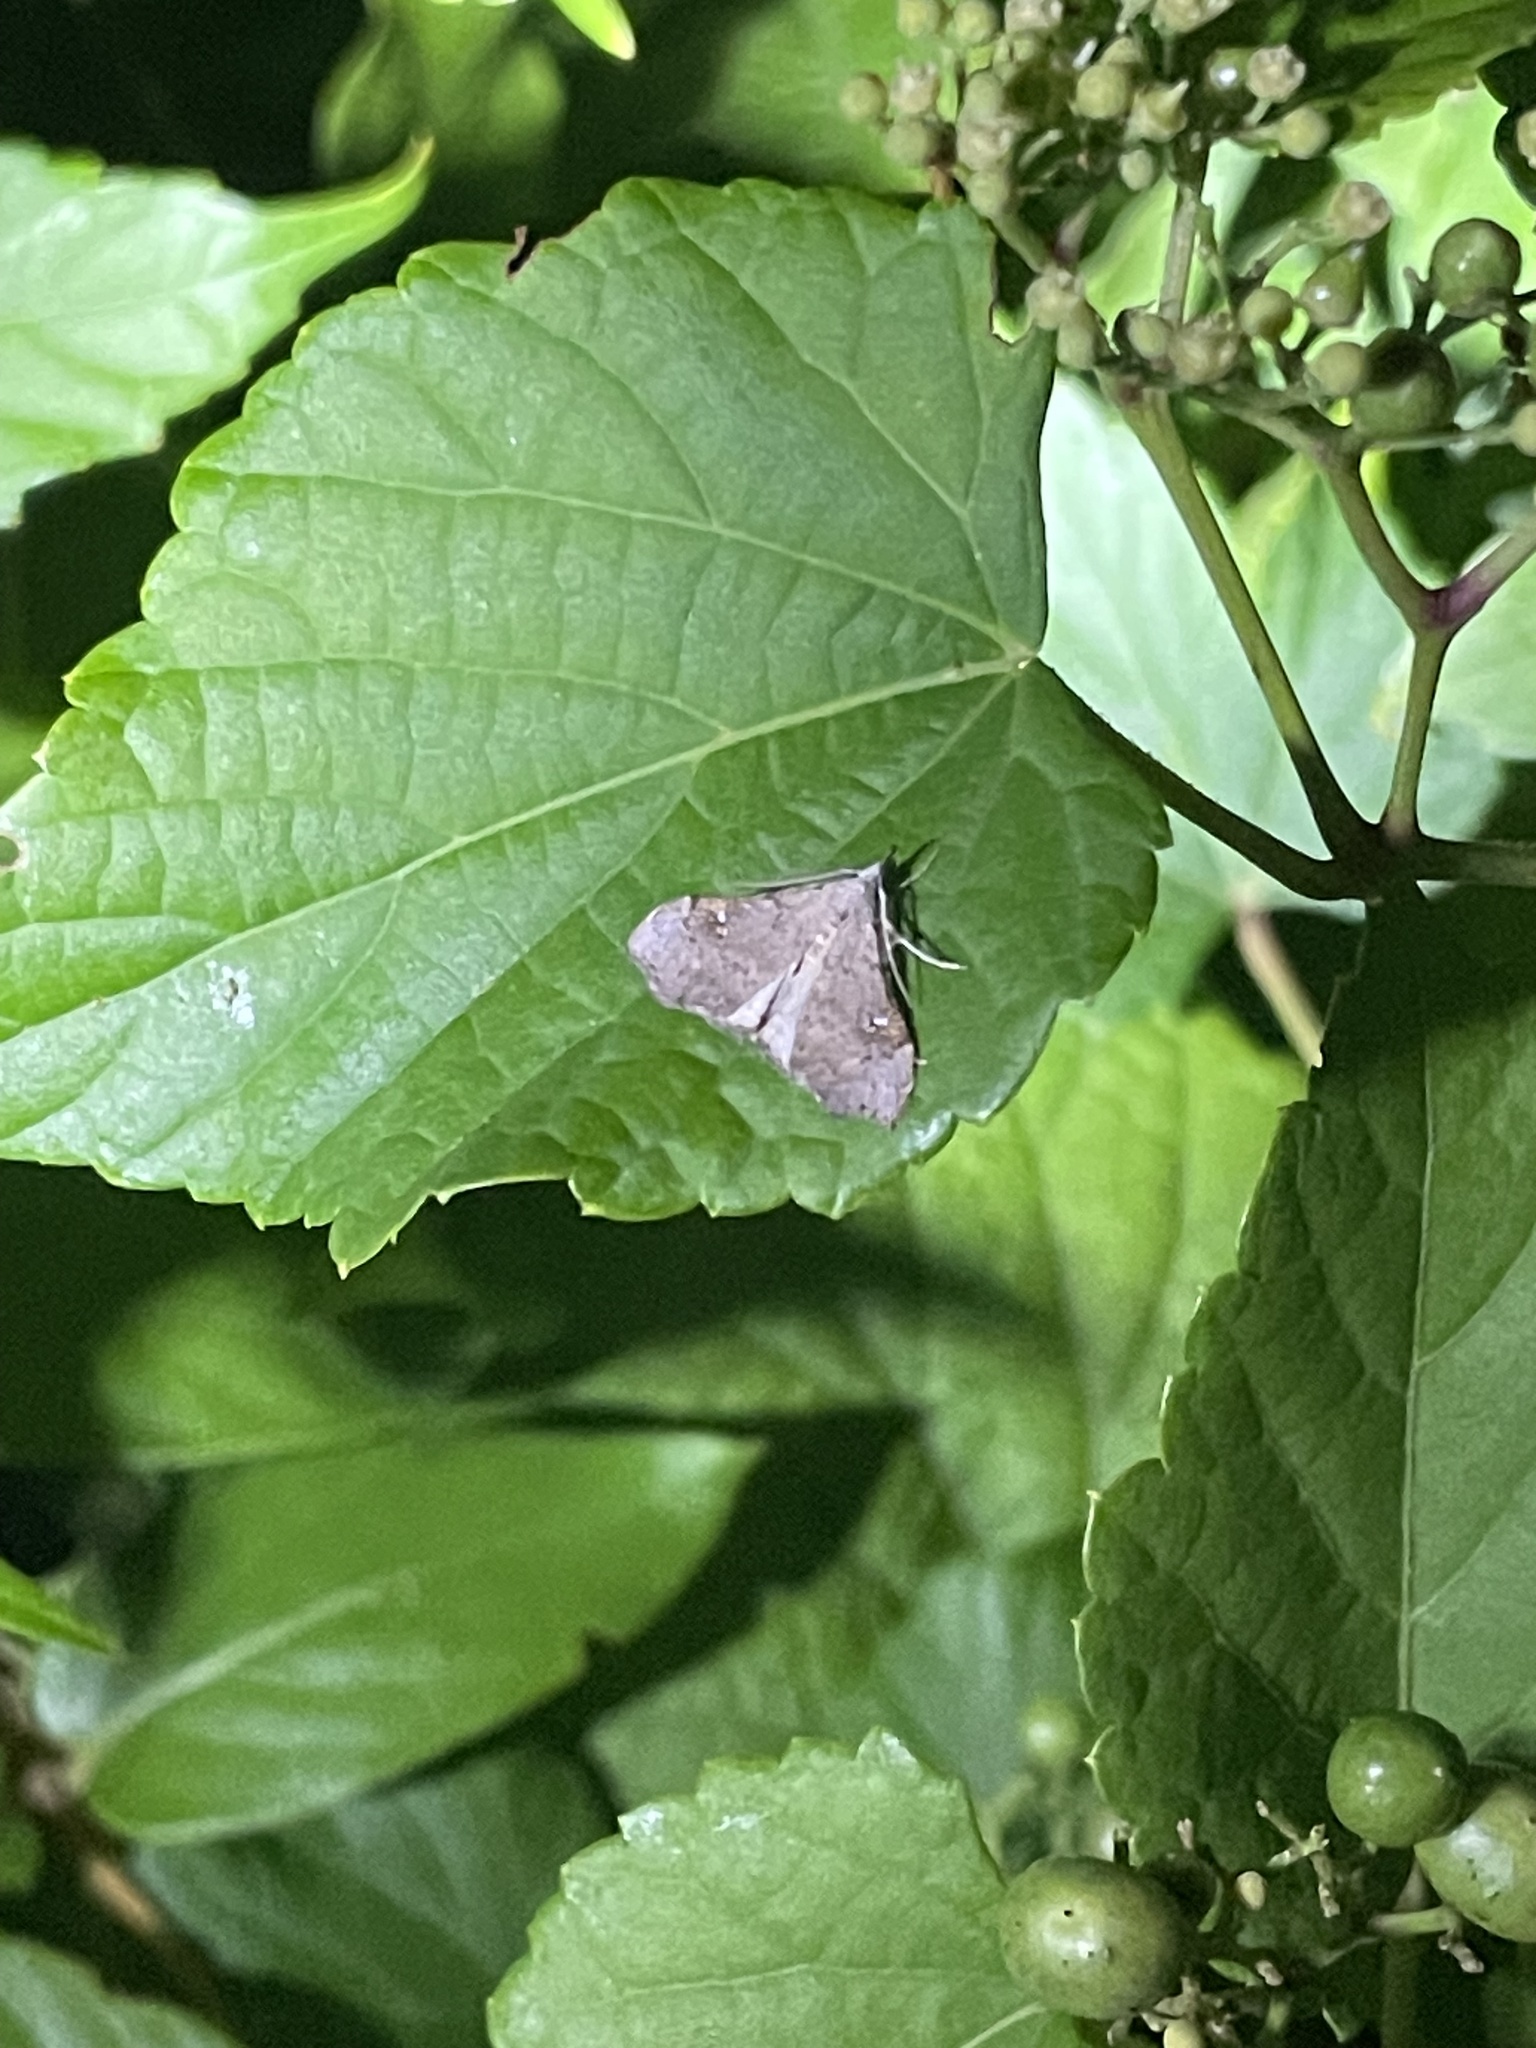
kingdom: Animalia
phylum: Arthropoda
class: Insecta
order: Lepidoptera
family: Erebidae
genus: Redectis
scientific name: Redectis vitrea
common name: White-spotted redectis
